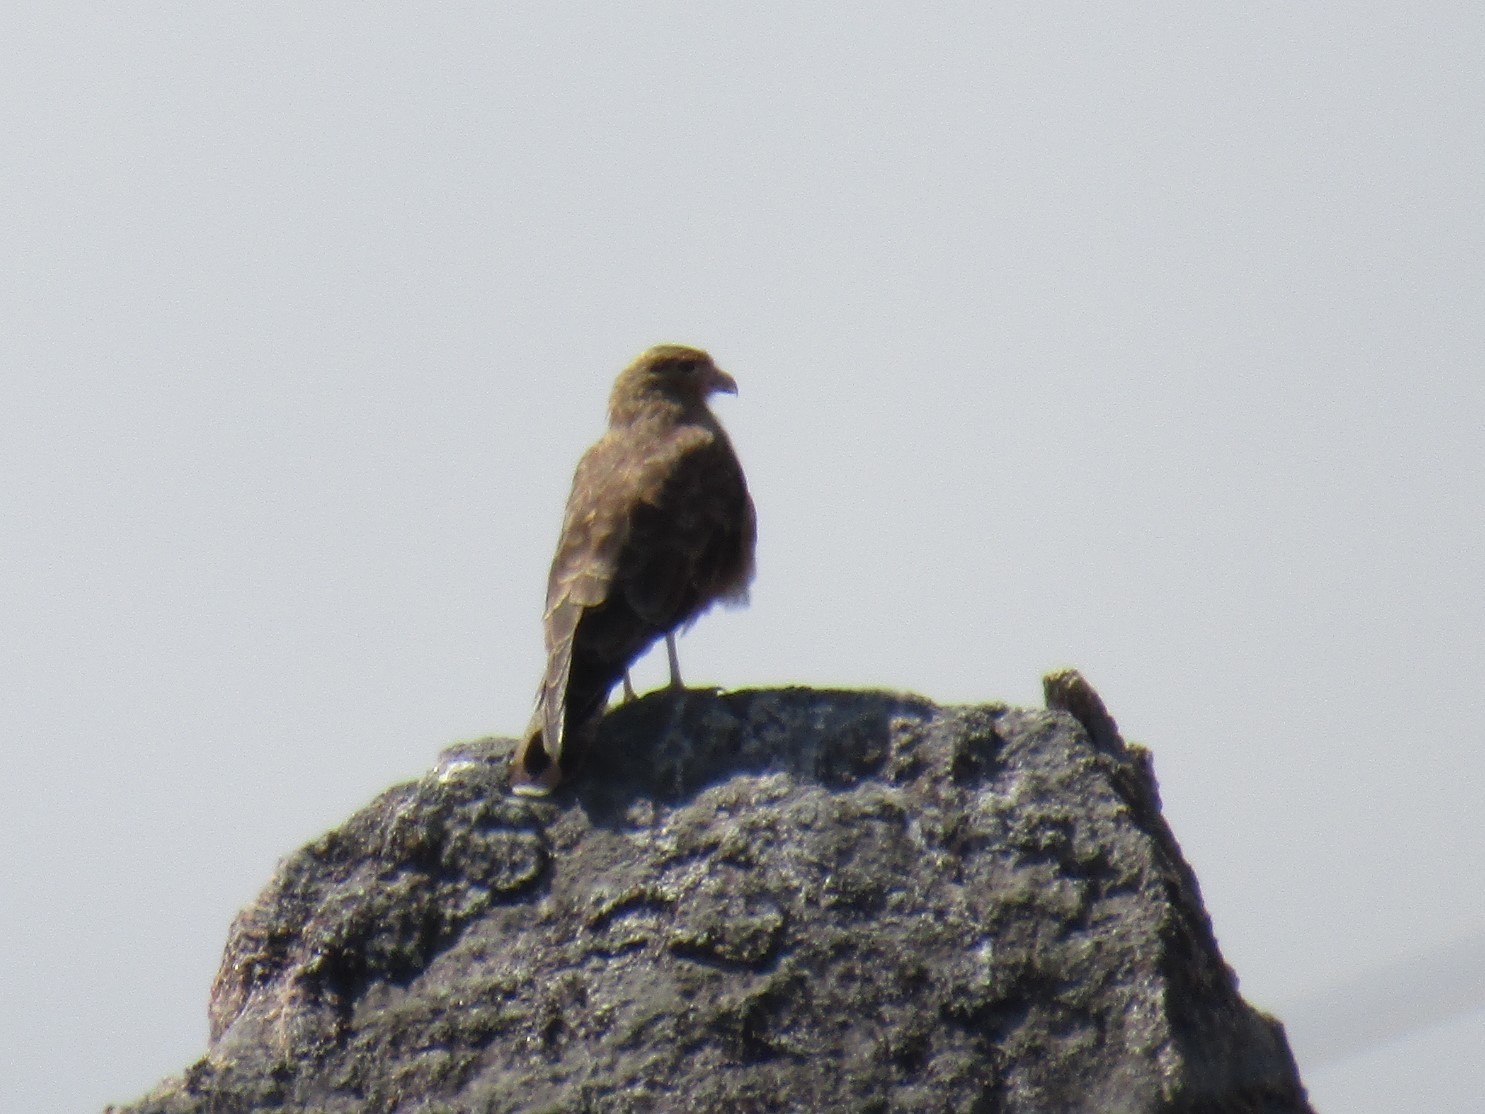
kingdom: Animalia
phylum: Chordata
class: Aves
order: Falconiformes
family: Falconidae
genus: Daptrius
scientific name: Daptrius
